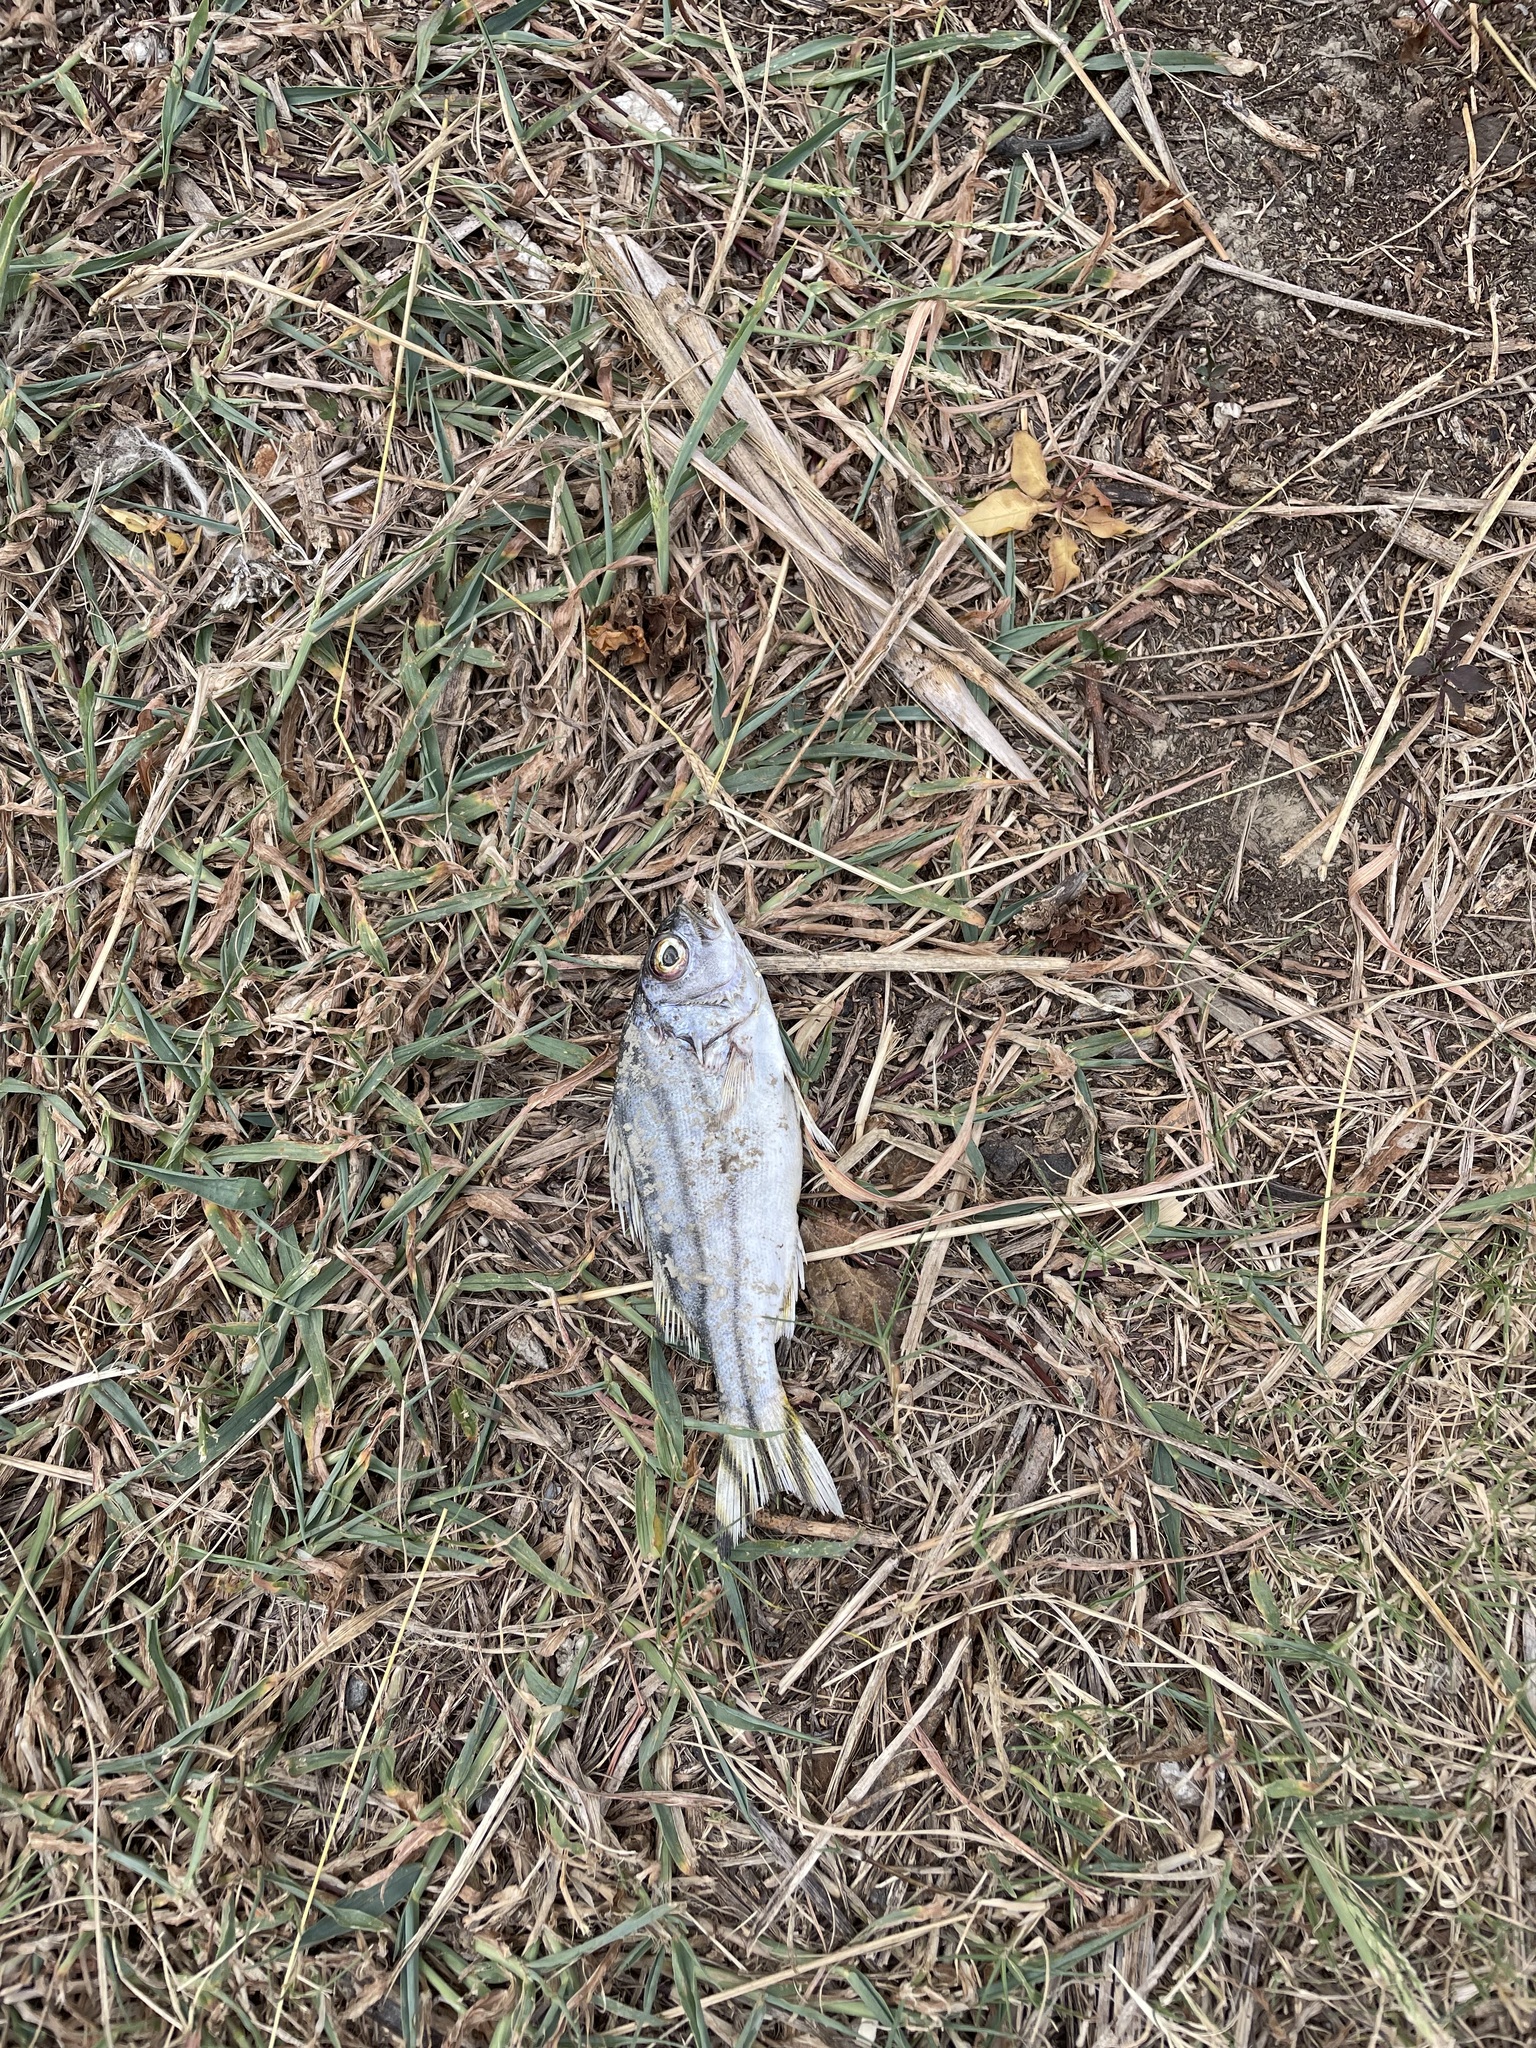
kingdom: Animalia
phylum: Chordata
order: Perciformes
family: Terapontidae
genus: Terapon
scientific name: Terapon jarbua
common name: Jarbua terapon
